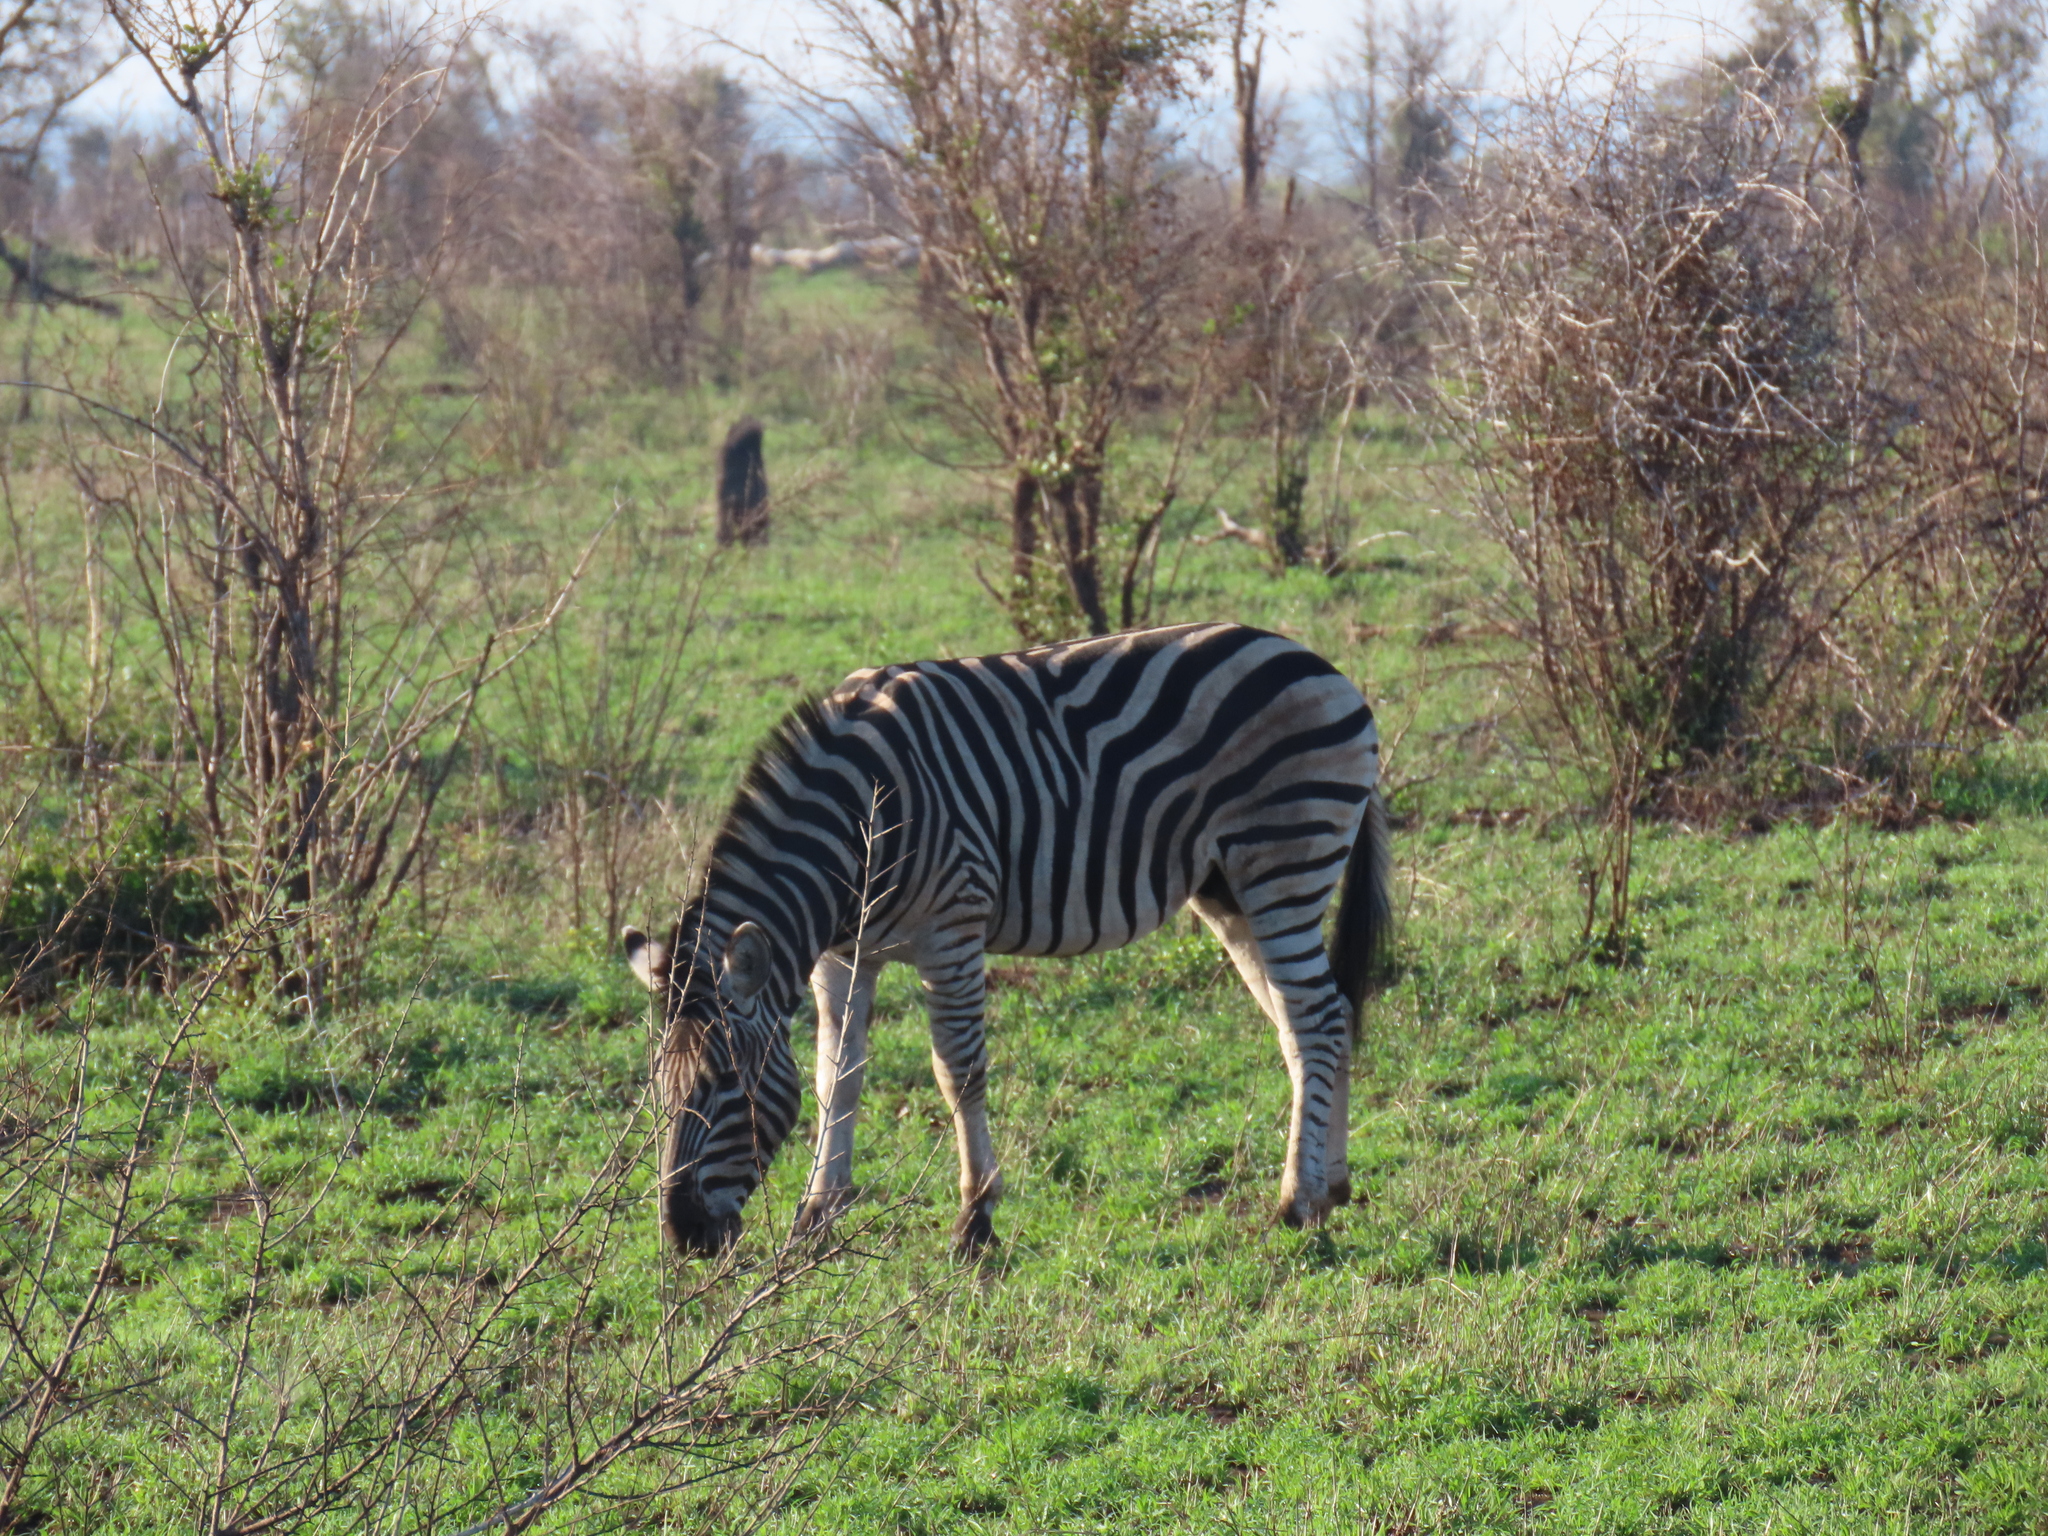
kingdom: Animalia
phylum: Chordata
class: Mammalia
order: Perissodactyla
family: Equidae
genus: Equus
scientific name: Equus quagga
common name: Plains zebra
